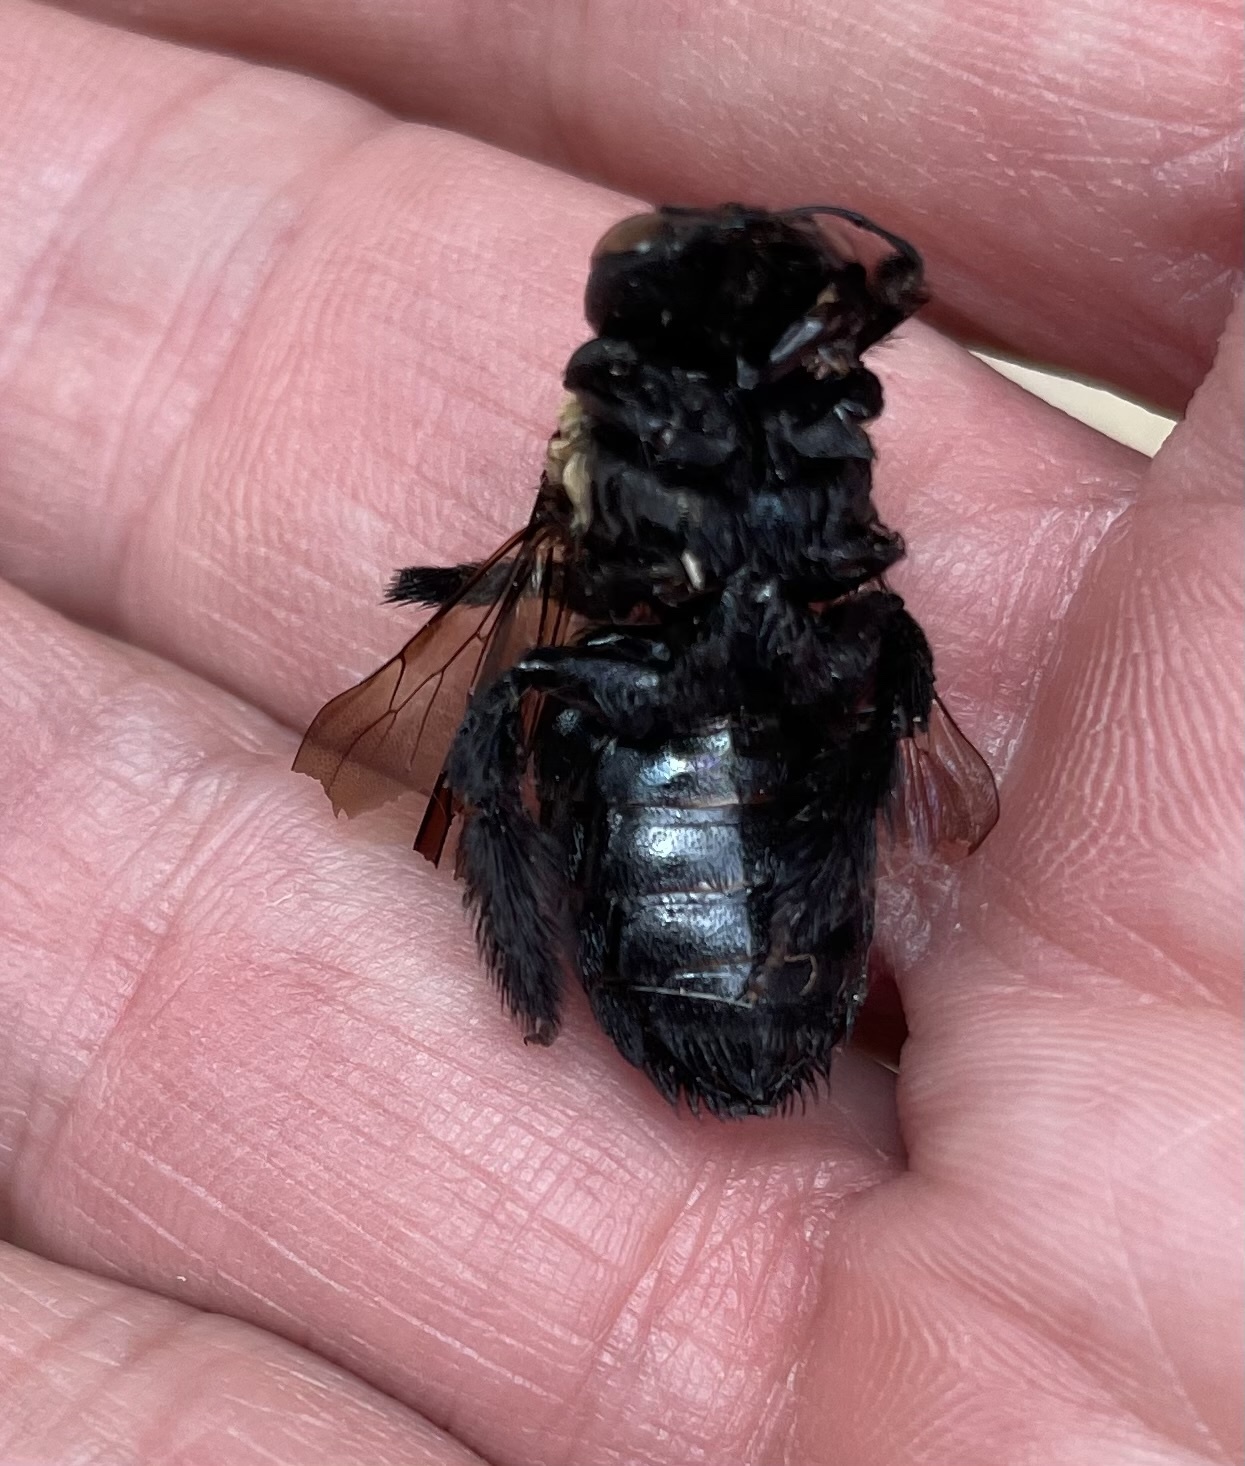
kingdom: Animalia
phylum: Arthropoda
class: Insecta
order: Hymenoptera
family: Apidae
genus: Xylocopa
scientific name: Xylocopa virginica
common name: Carpenter bee
